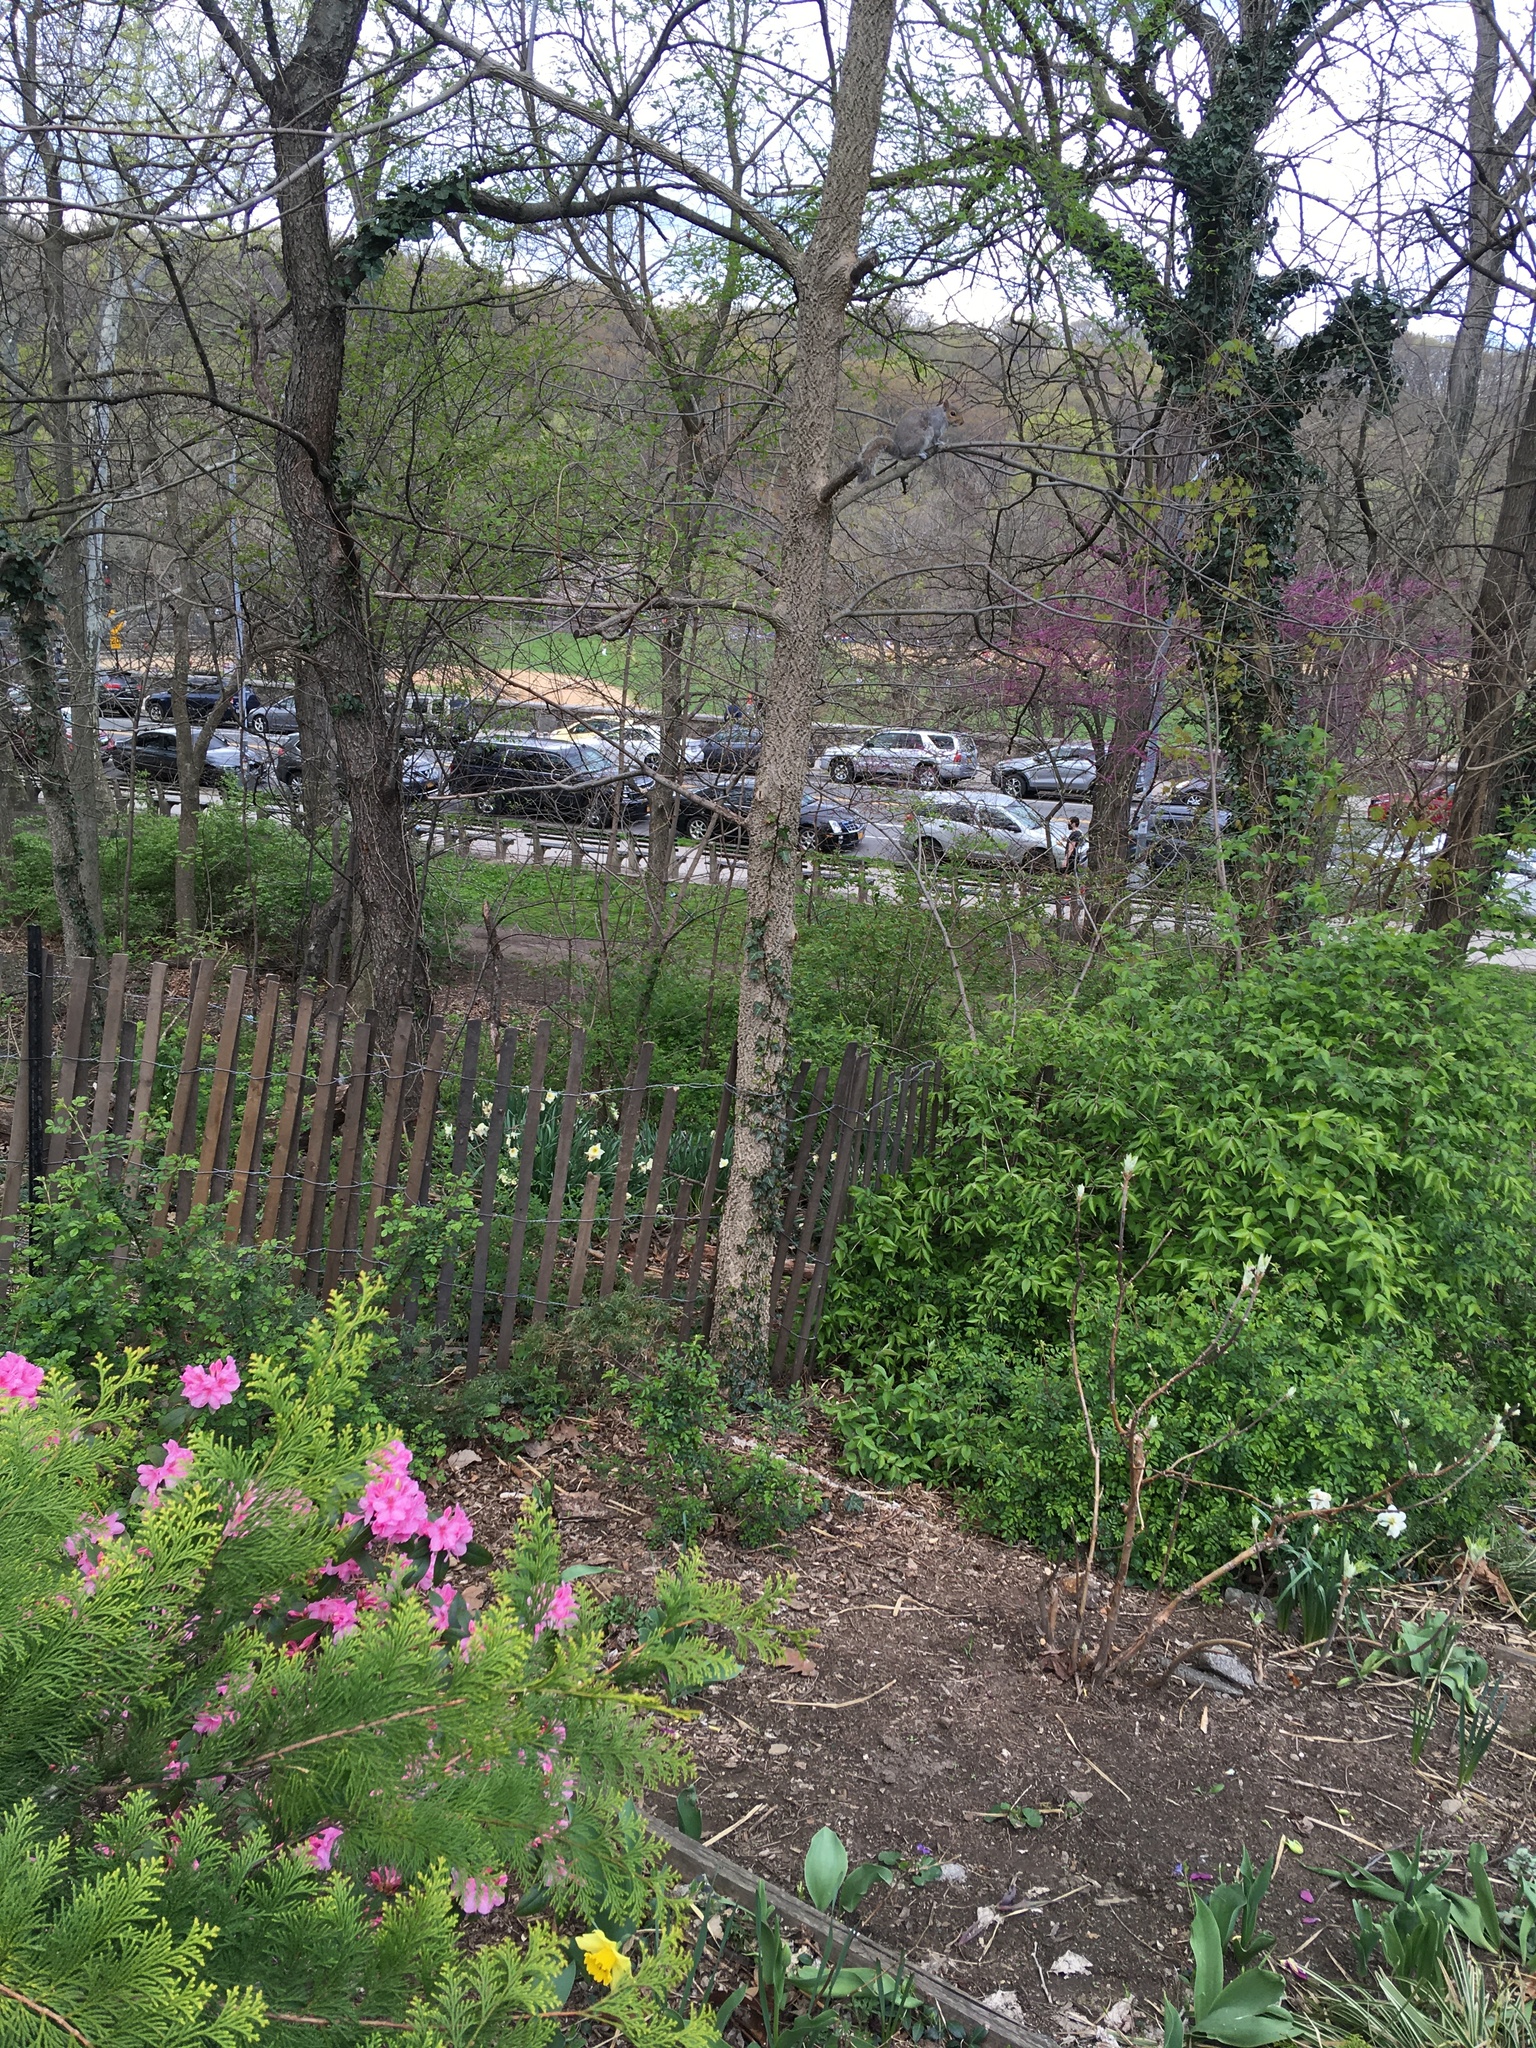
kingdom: Plantae
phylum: Tracheophyta
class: Magnoliopsida
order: Rosales
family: Cannabaceae
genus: Celtis
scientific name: Celtis occidentalis
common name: Common hackberry
